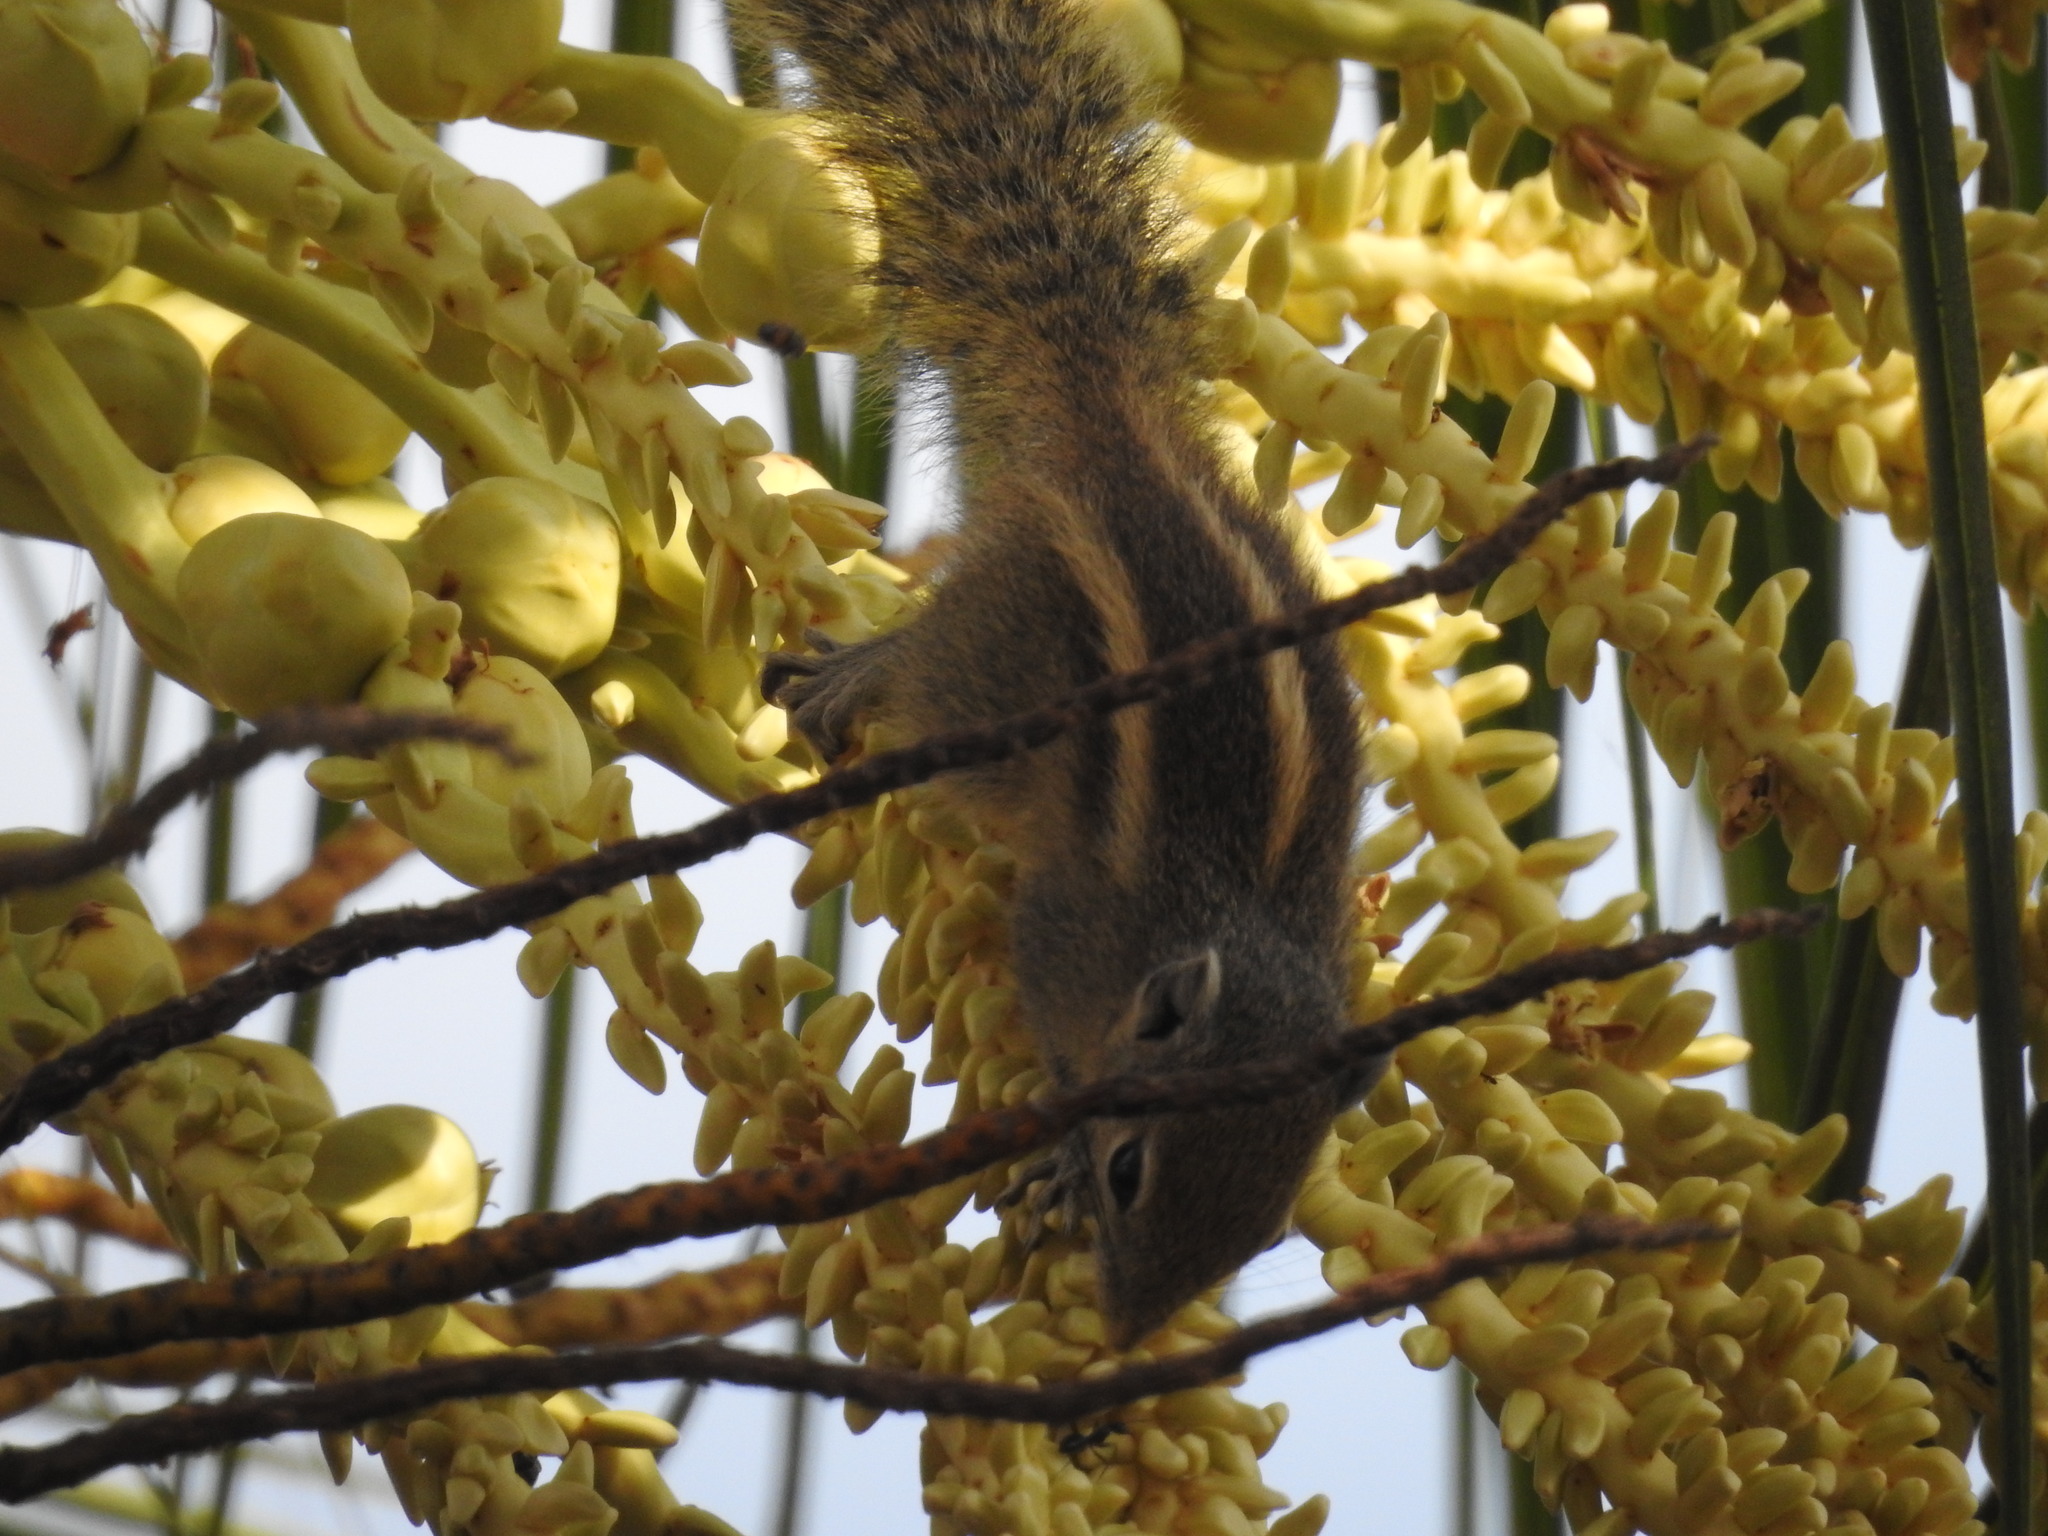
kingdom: Animalia
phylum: Chordata
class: Mammalia
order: Rodentia
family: Sciuridae
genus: Funambulus
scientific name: Funambulus palmarum
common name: Indian palm squirrel
